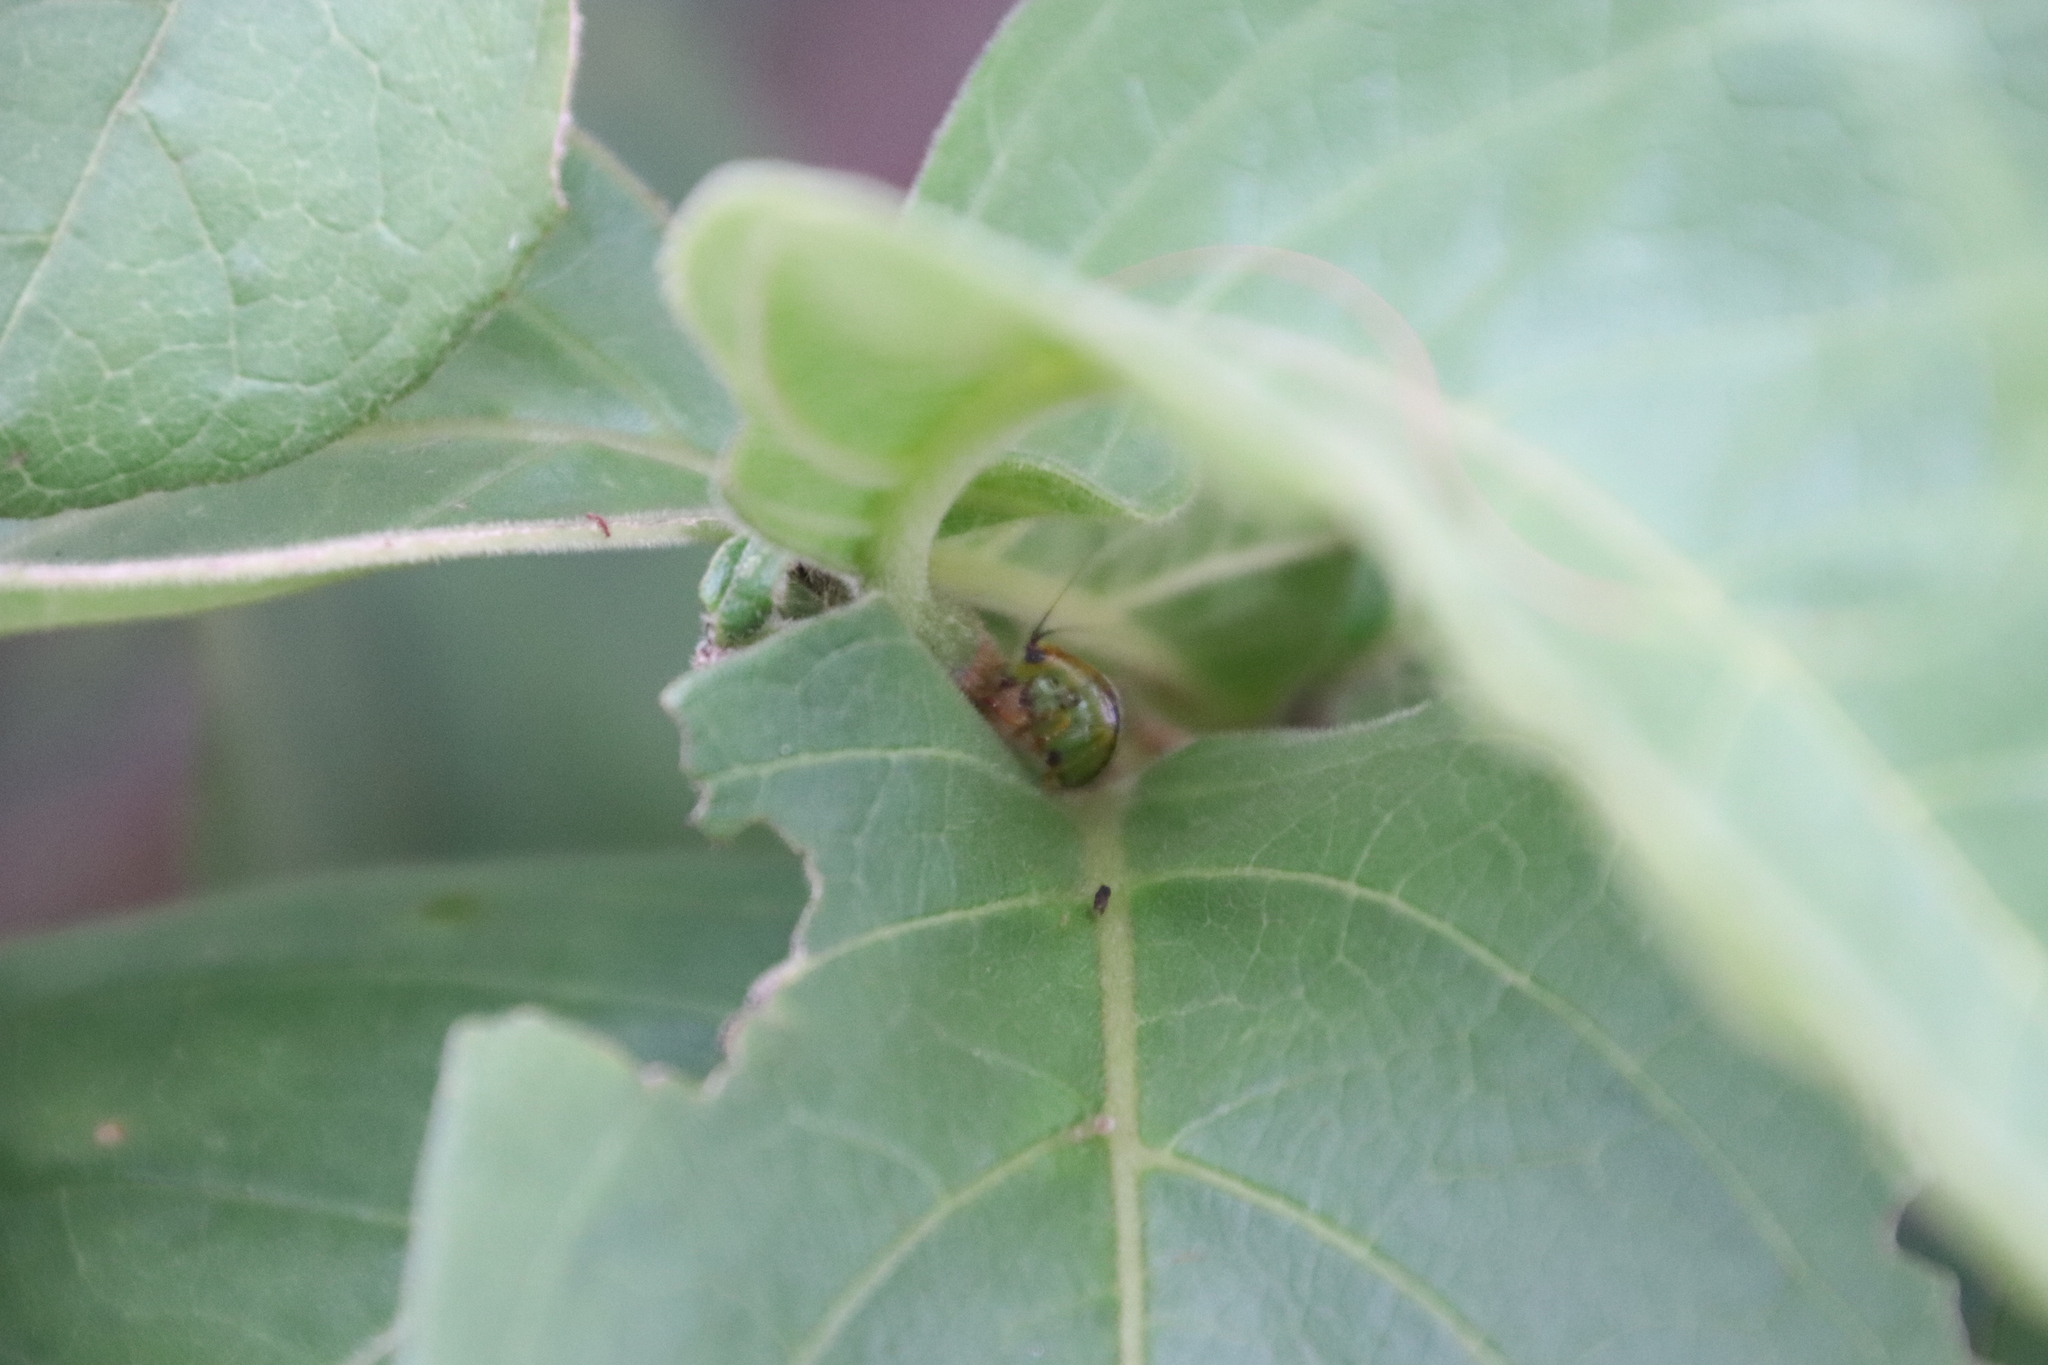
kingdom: Plantae
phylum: Tracheophyta
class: Magnoliopsida
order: Gentianales
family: Rubiaceae
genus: Vangueria
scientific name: Vangueria infausta
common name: Medlar
